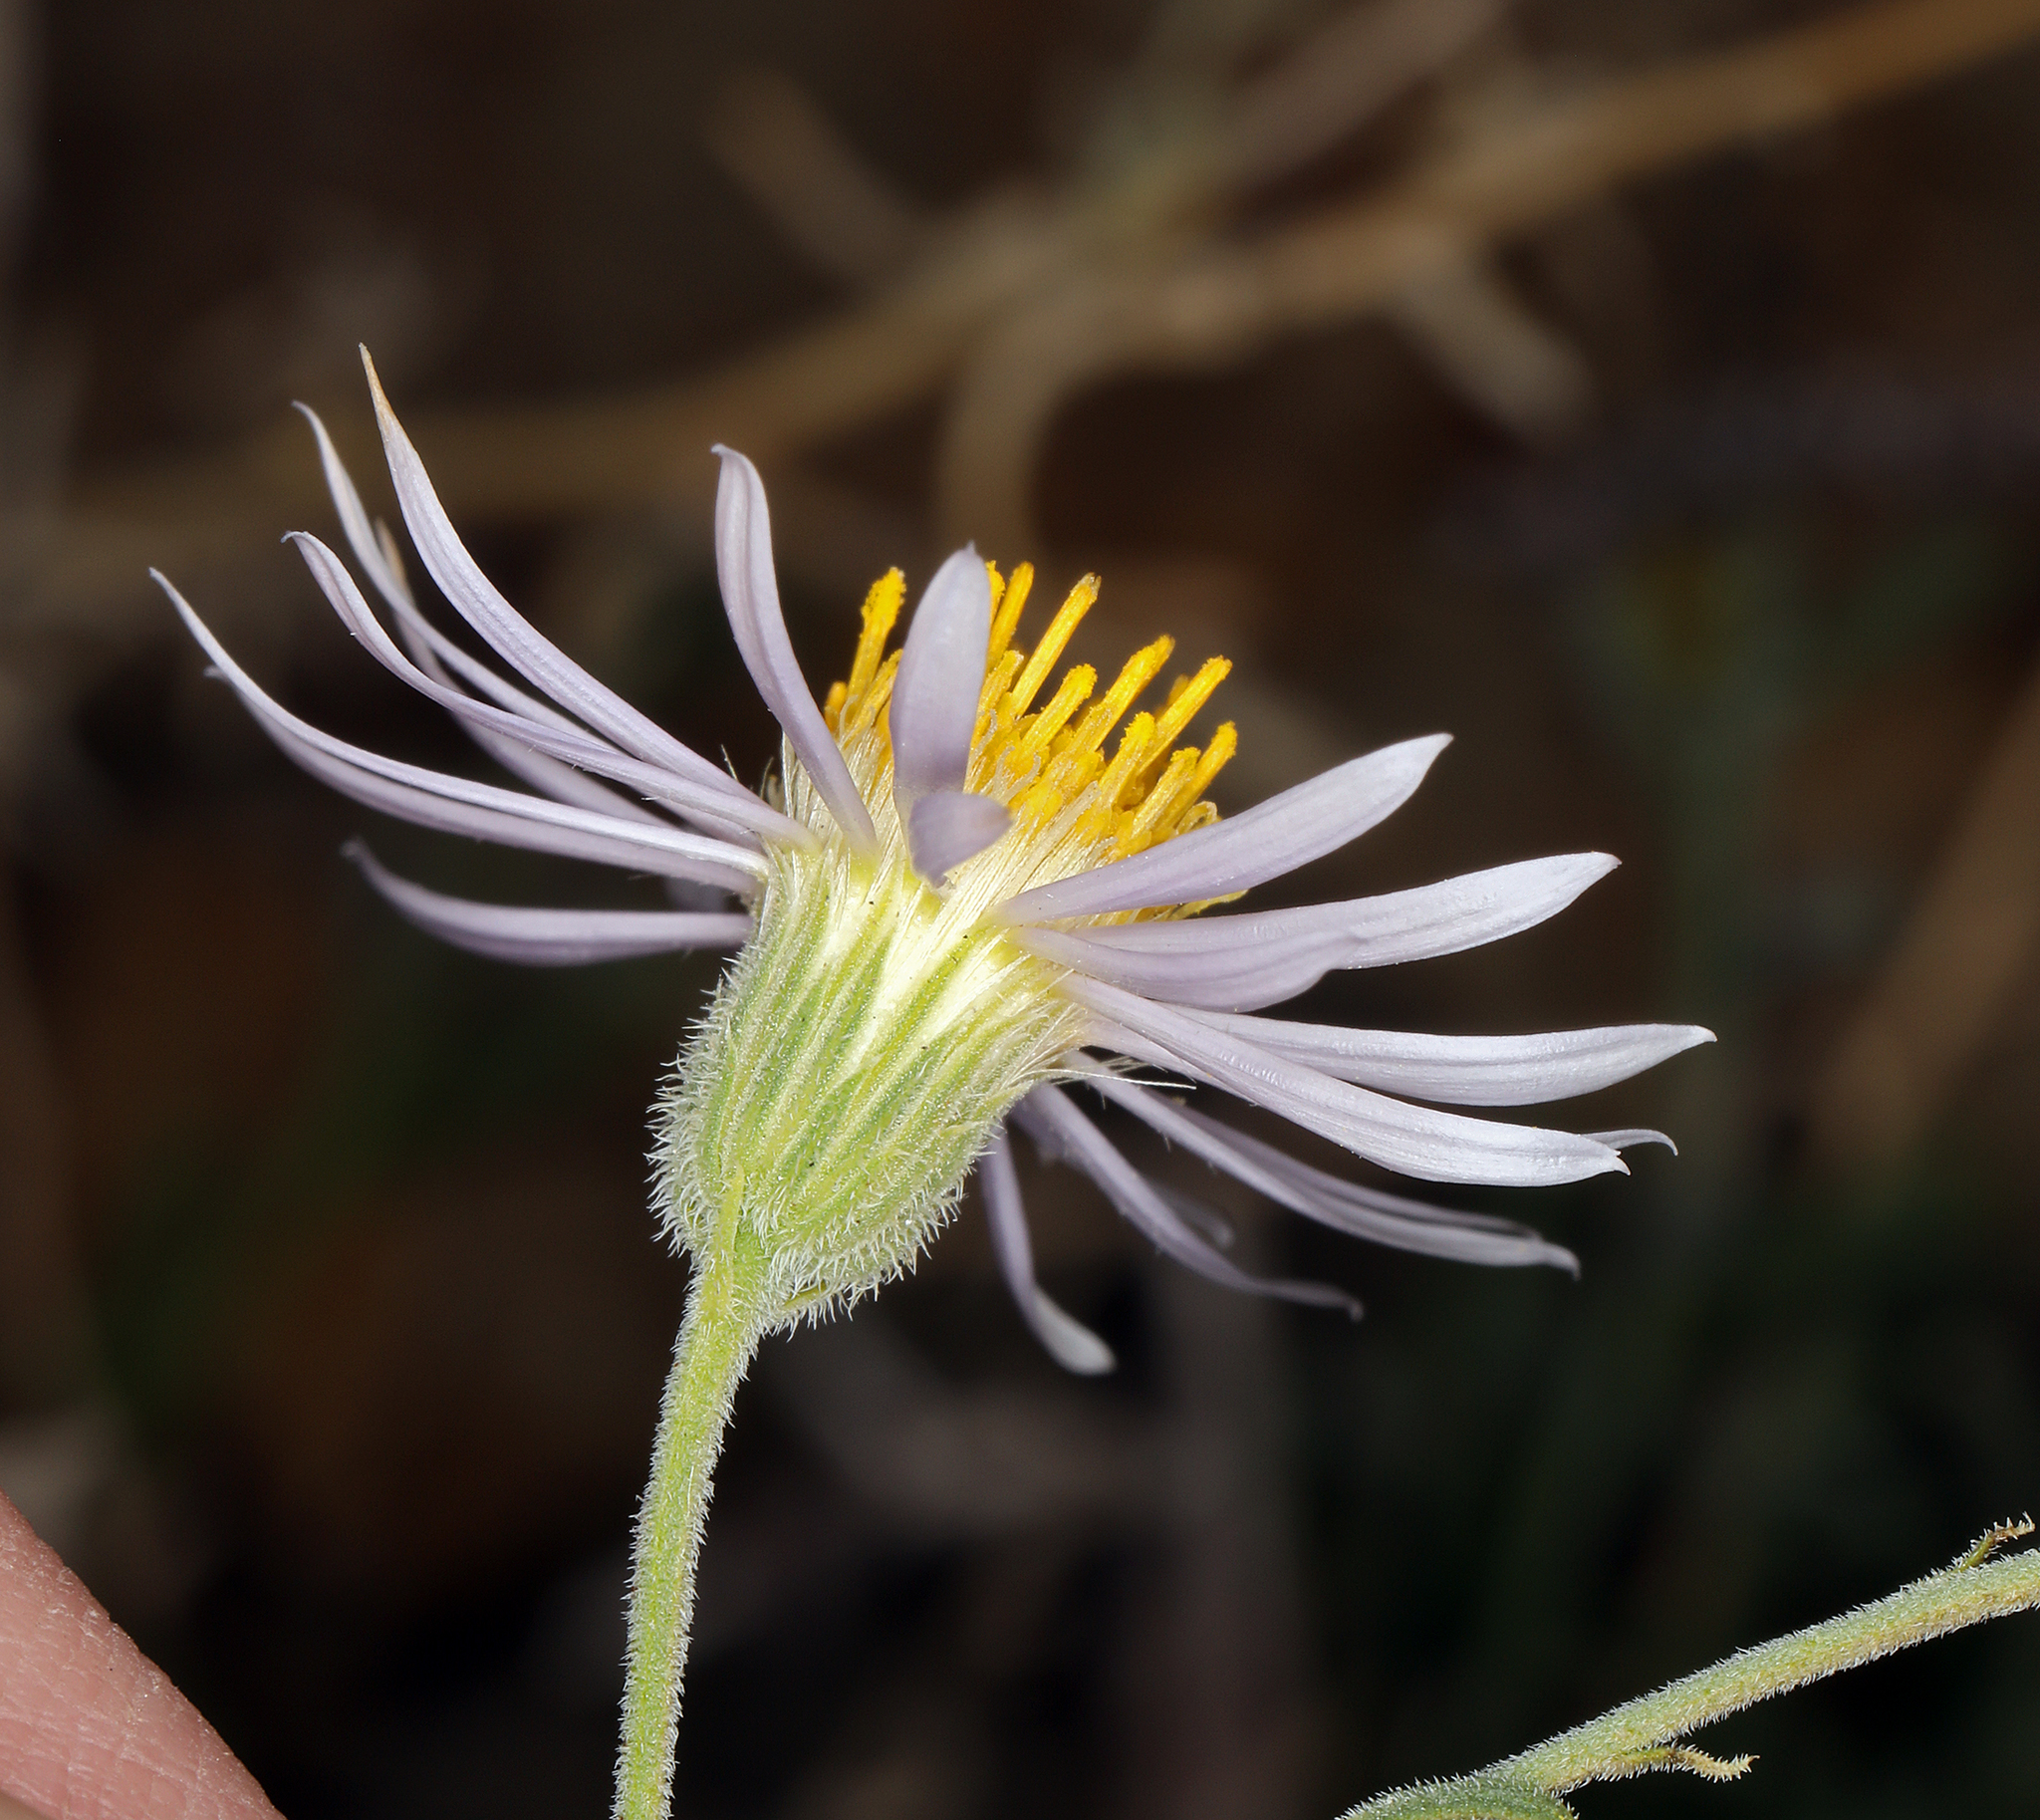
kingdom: Plantae
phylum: Tracheophyta
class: Magnoliopsida
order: Asterales
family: Asteraceae
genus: Erigeron
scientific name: Erigeron breweri
